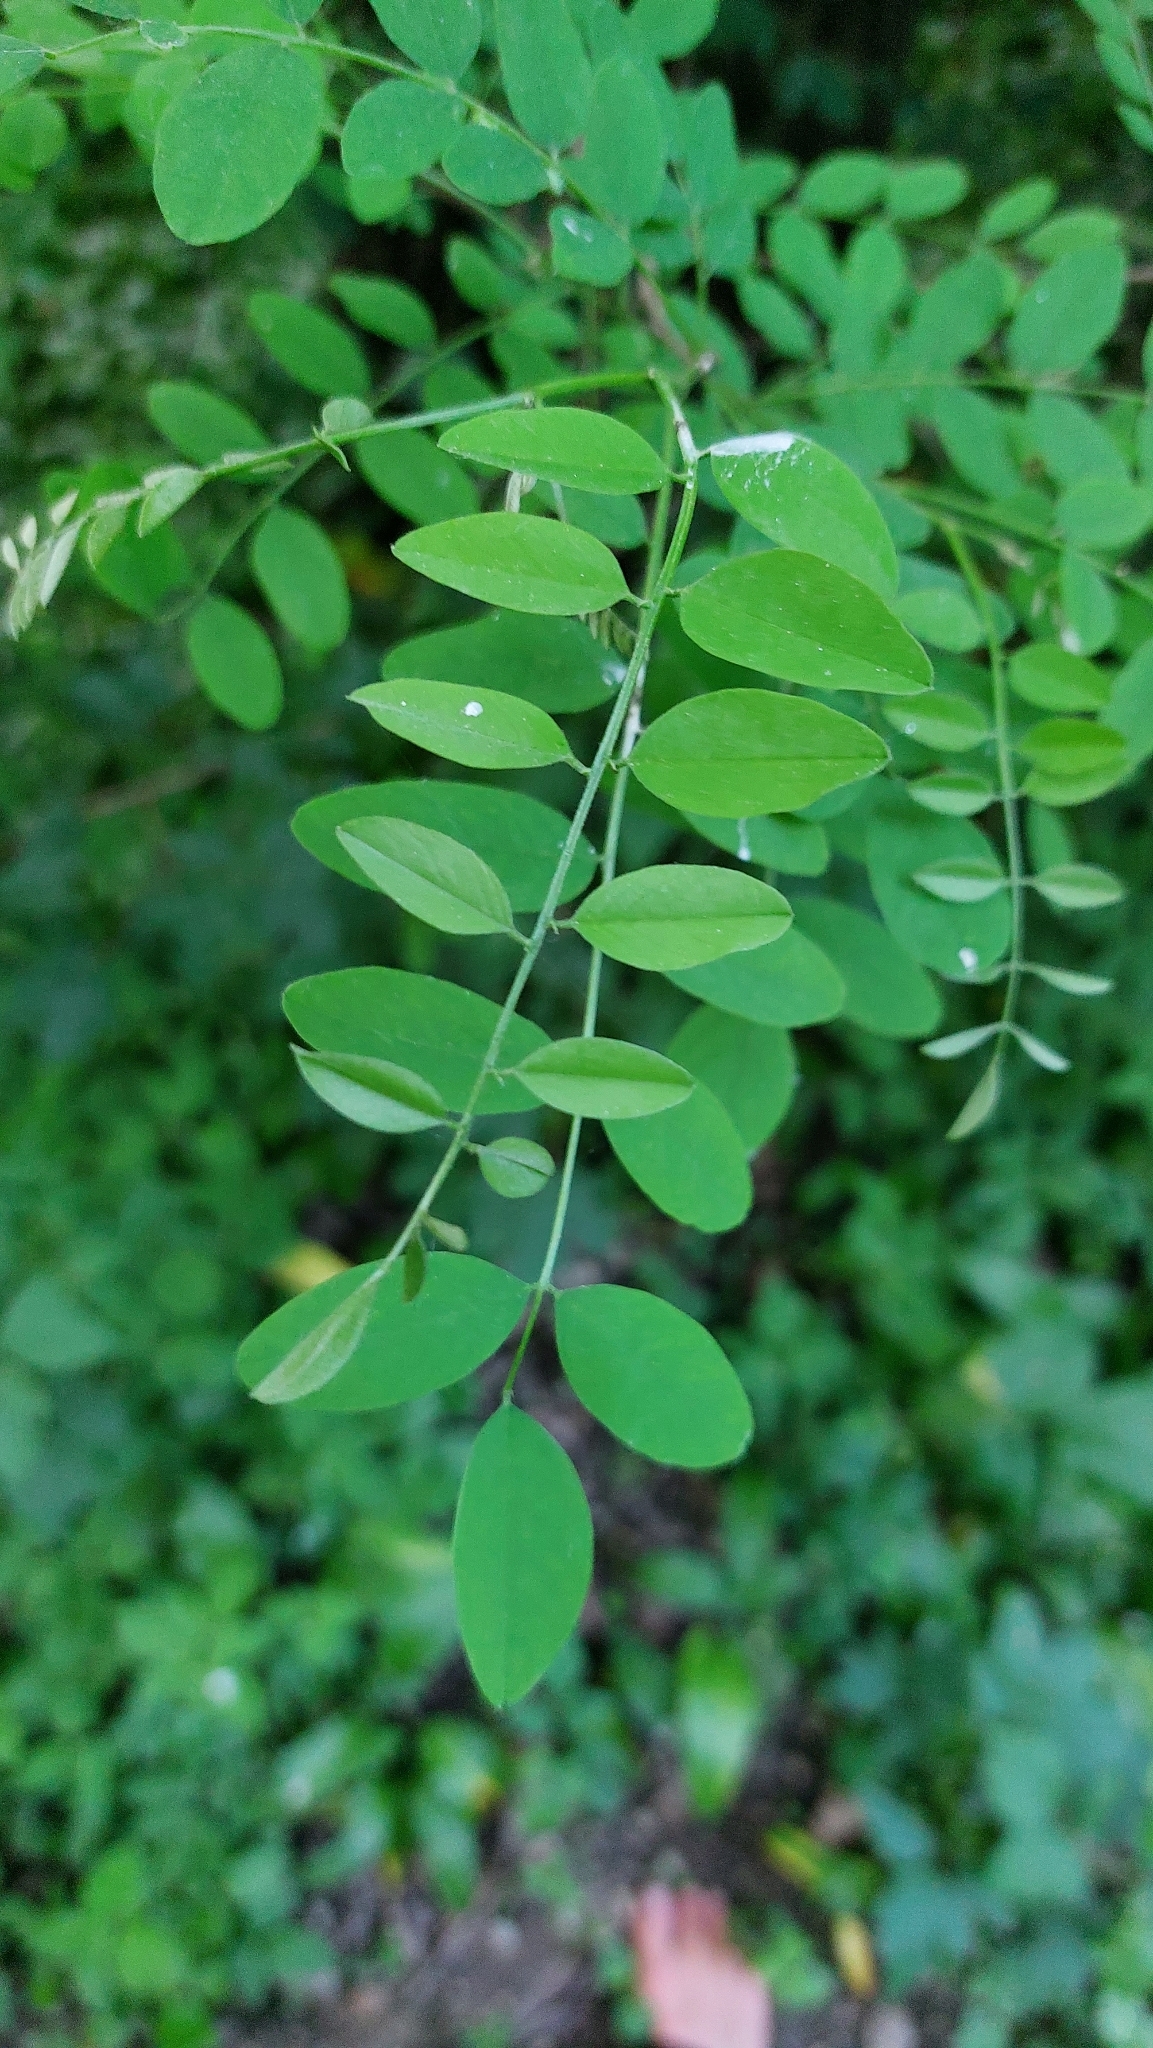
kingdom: Plantae
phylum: Tracheophyta
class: Magnoliopsida
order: Fabales
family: Fabaceae
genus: Robinia
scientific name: Robinia pseudoacacia
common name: Black locust
